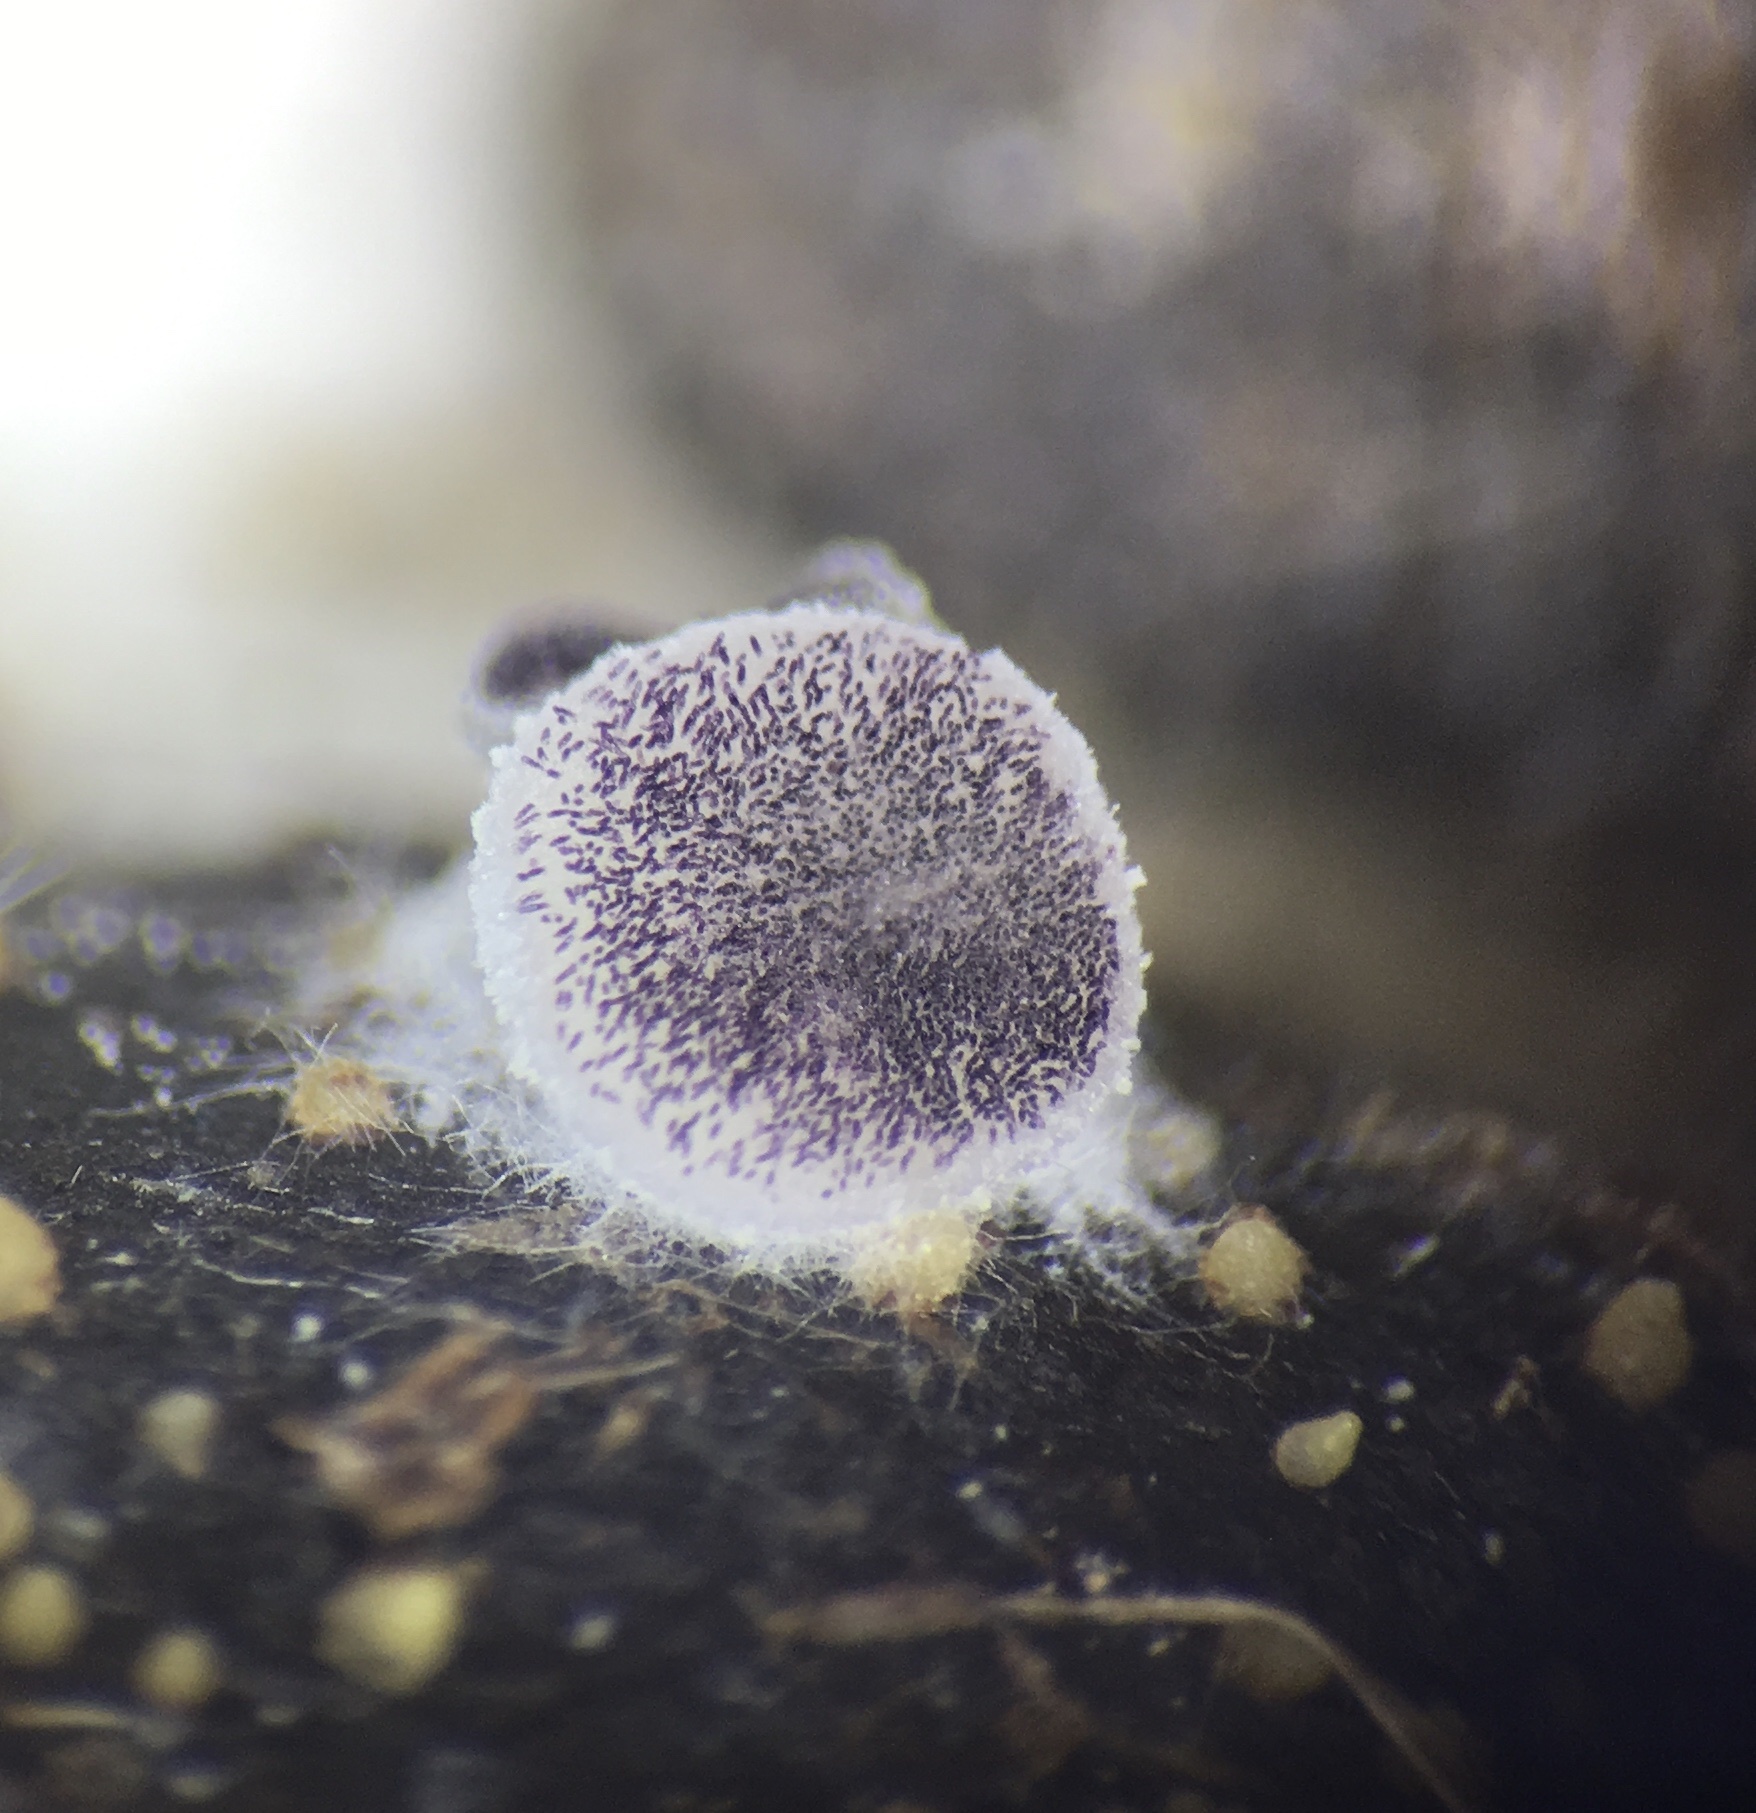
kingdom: Fungi
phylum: Ascomycota
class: Pezizomycetes
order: Pezizales
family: Ascobolaceae
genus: Ascobolus
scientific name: Ascobolus sacchariferus
